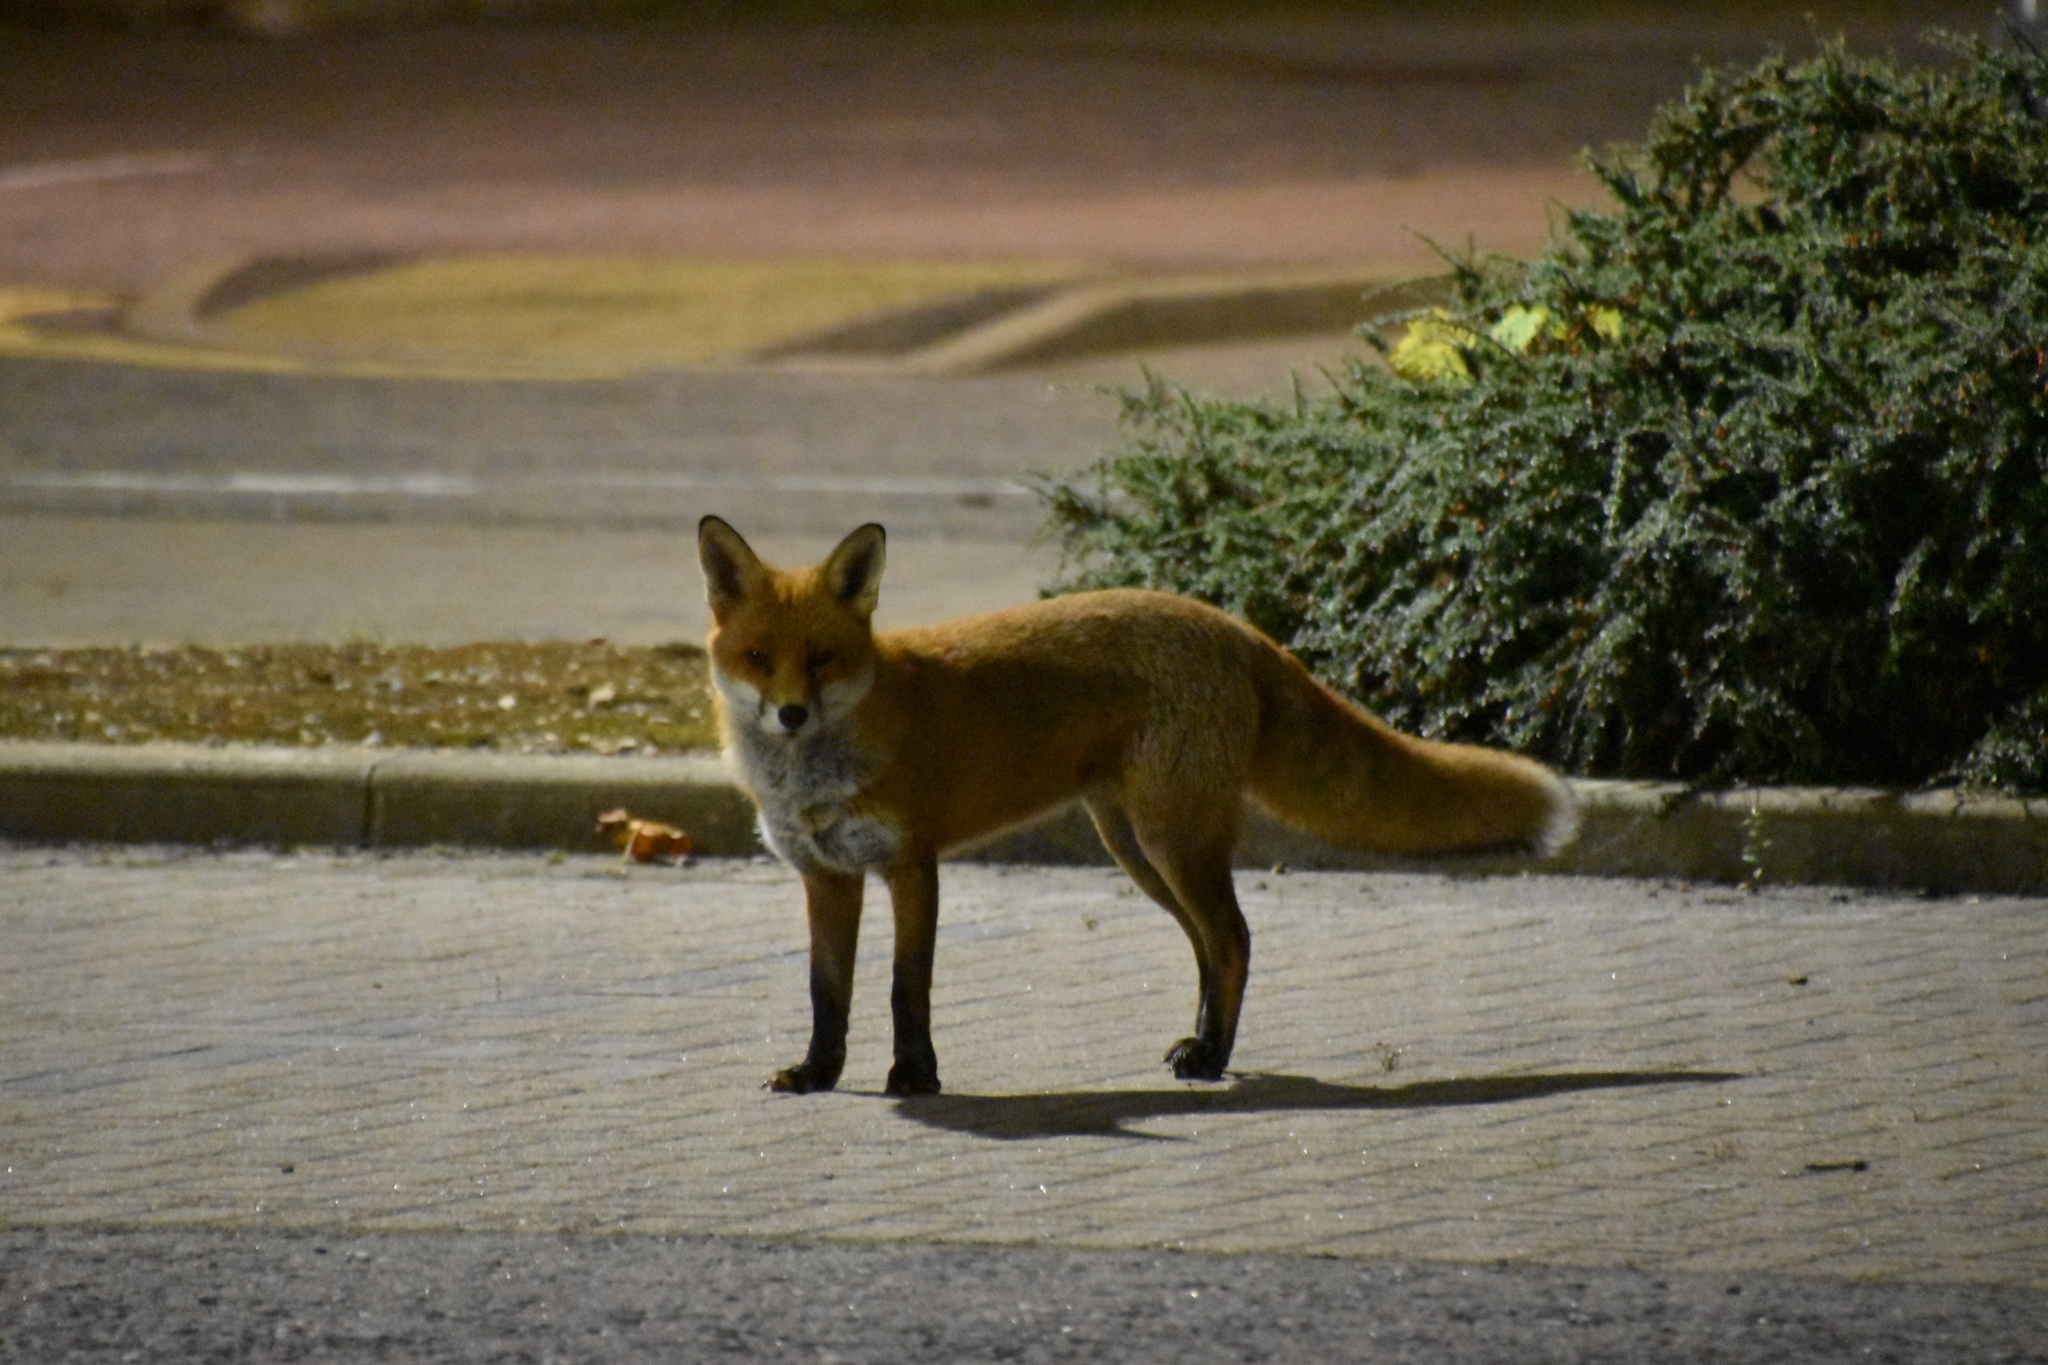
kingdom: Animalia
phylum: Chordata
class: Mammalia
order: Carnivora
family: Canidae
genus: Vulpes
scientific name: Vulpes vulpes
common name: Red fox
